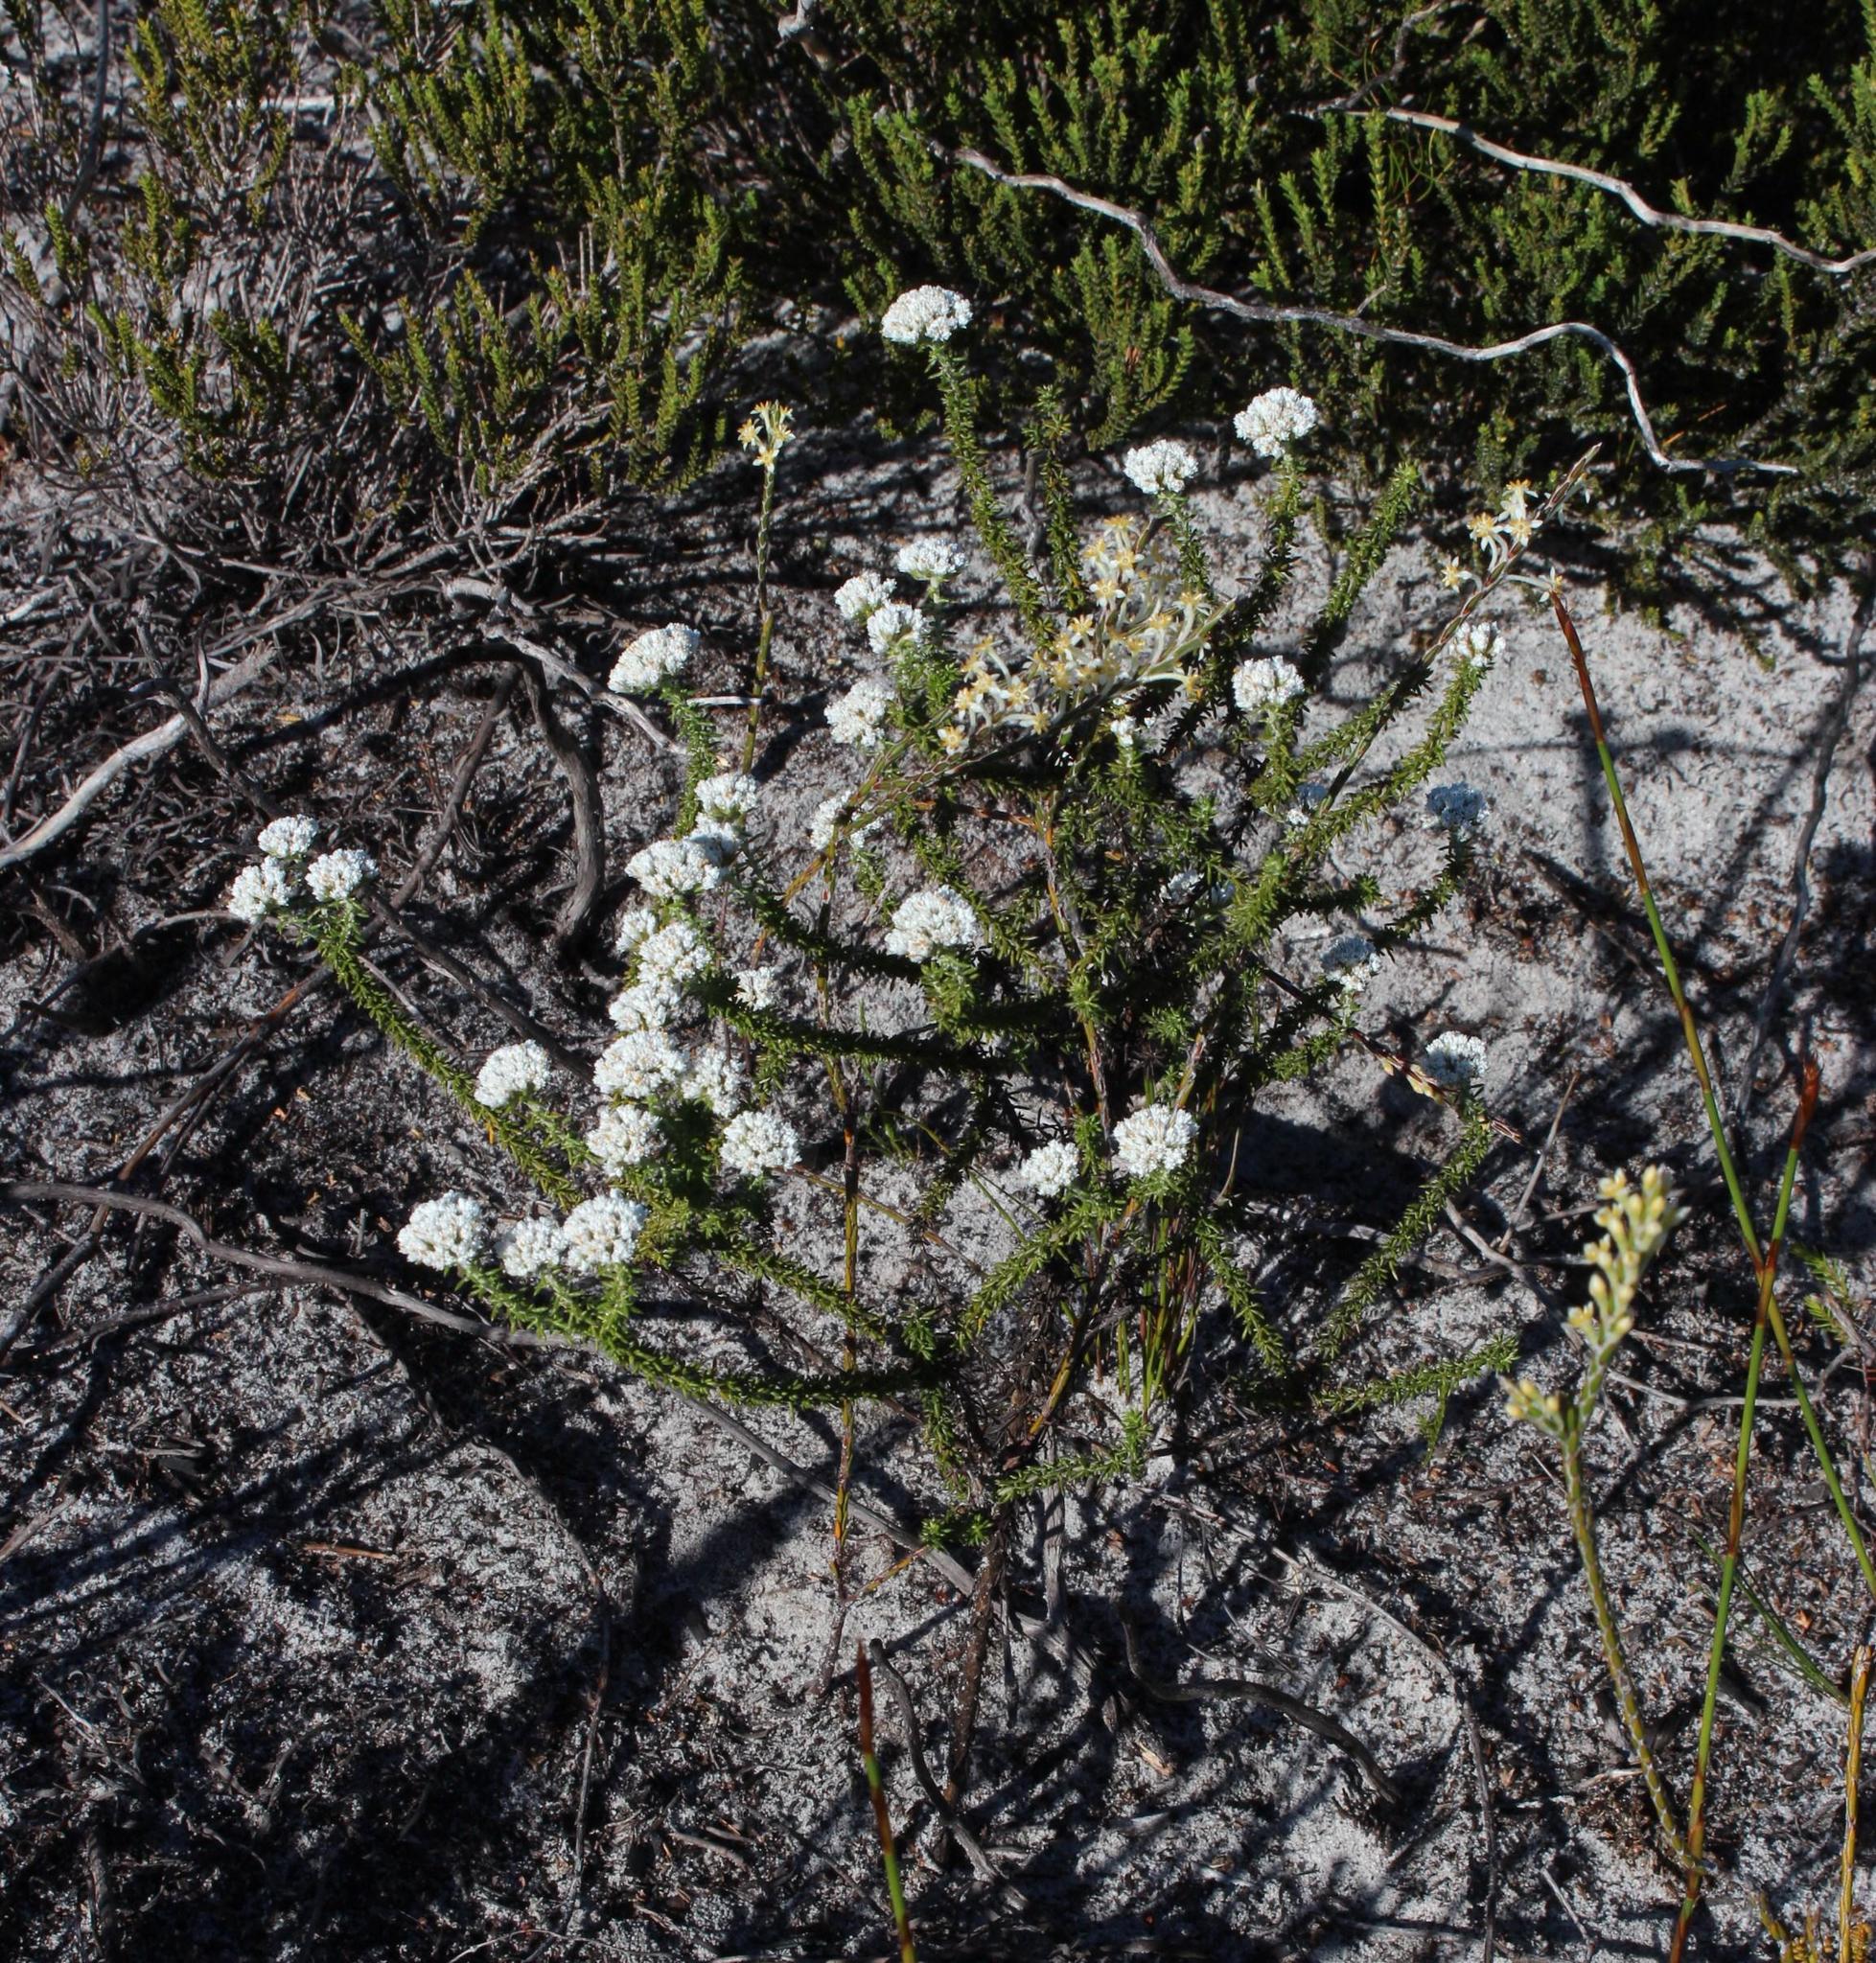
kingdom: Plantae
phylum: Tracheophyta
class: Magnoliopsida
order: Asterales
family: Asteraceae
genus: Metalasia
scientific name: Metalasia brevifolia
